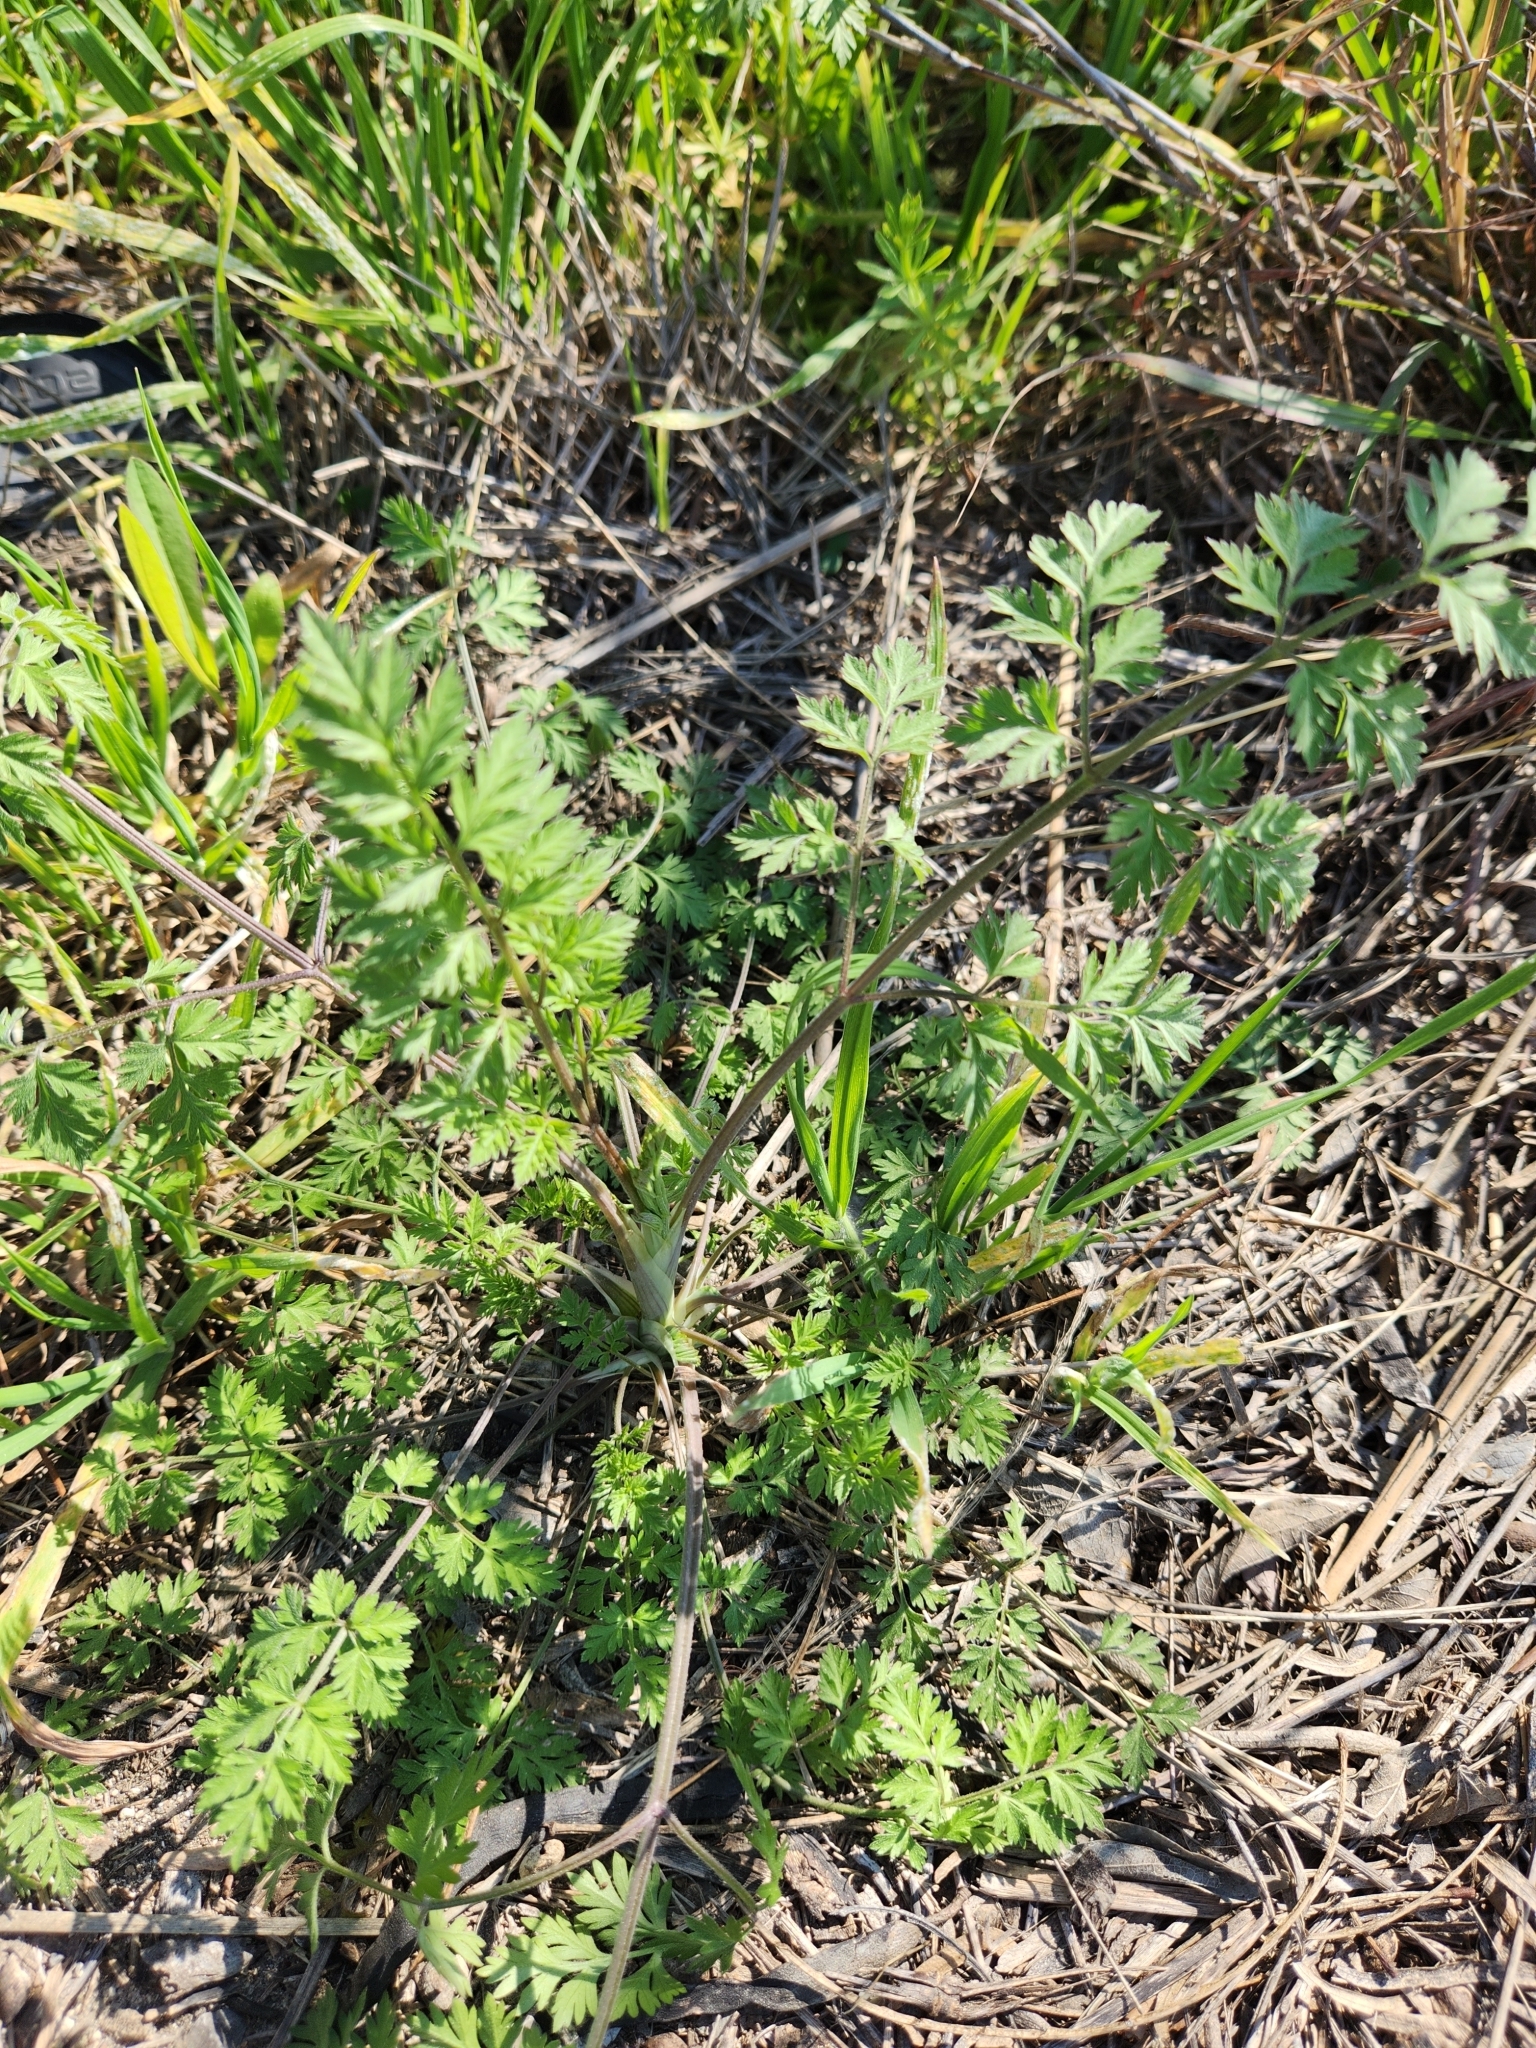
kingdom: Plantae
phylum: Tracheophyta
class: Magnoliopsida
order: Apiales
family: Apiaceae
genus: Chaerophyllum
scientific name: Chaerophyllum tainturieri
